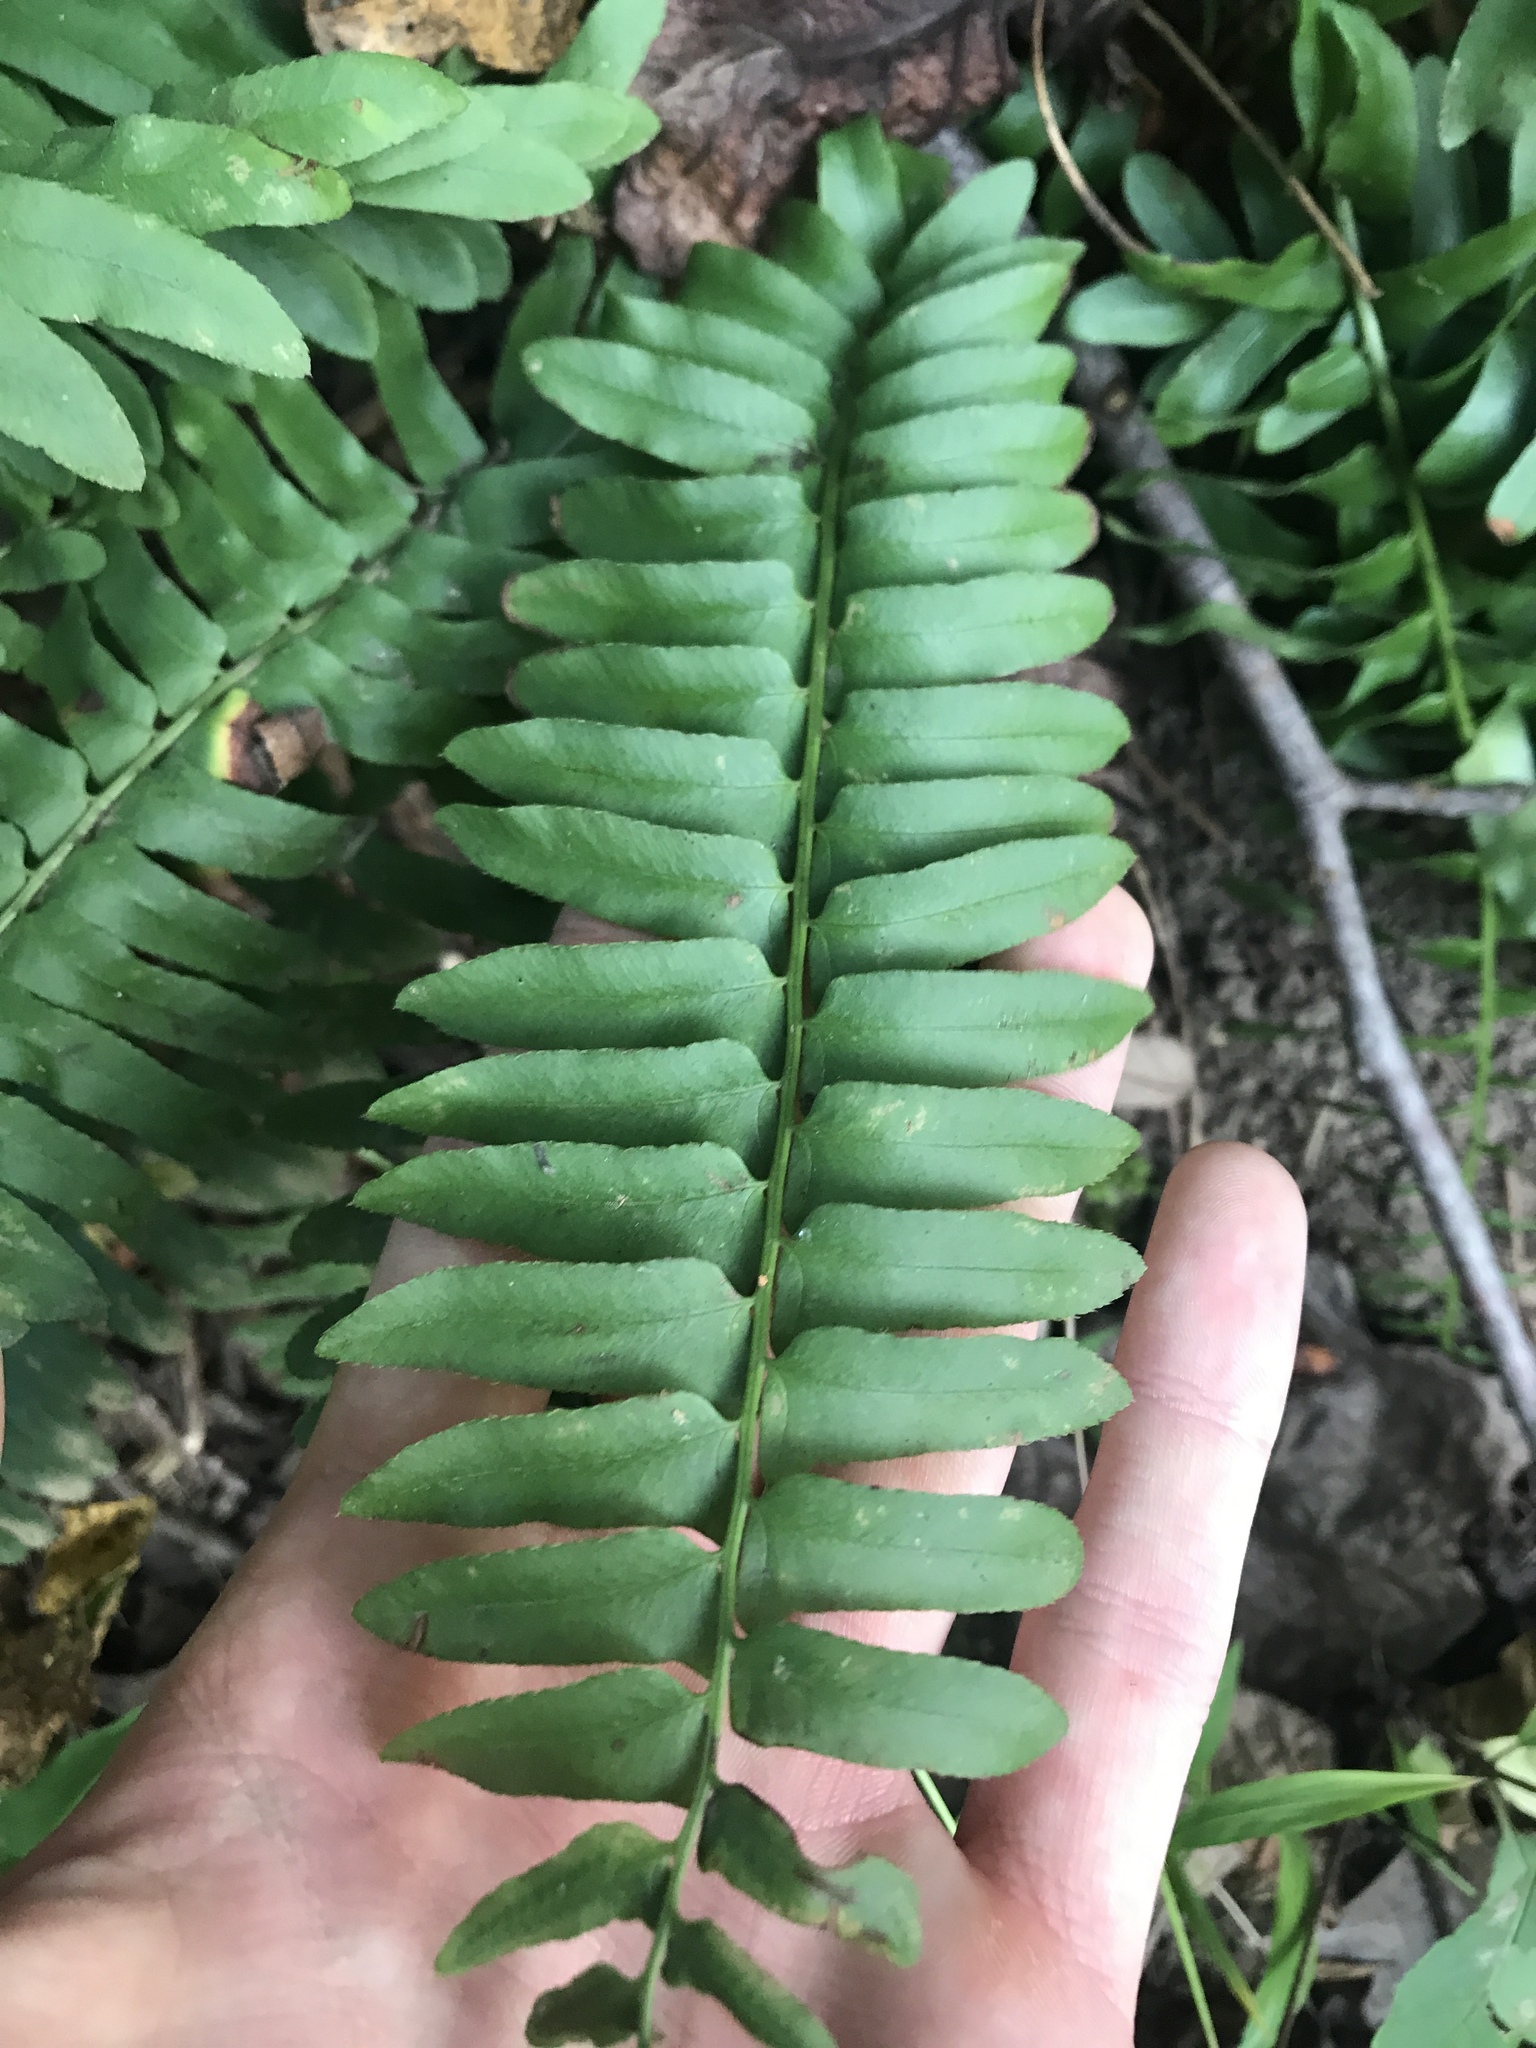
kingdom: Plantae
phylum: Tracheophyta
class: Polypodiopsida
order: Polypodiales
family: Dryopteridaceae
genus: Polystichum
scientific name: Polystichum acrostichoides
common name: Christmas fern
